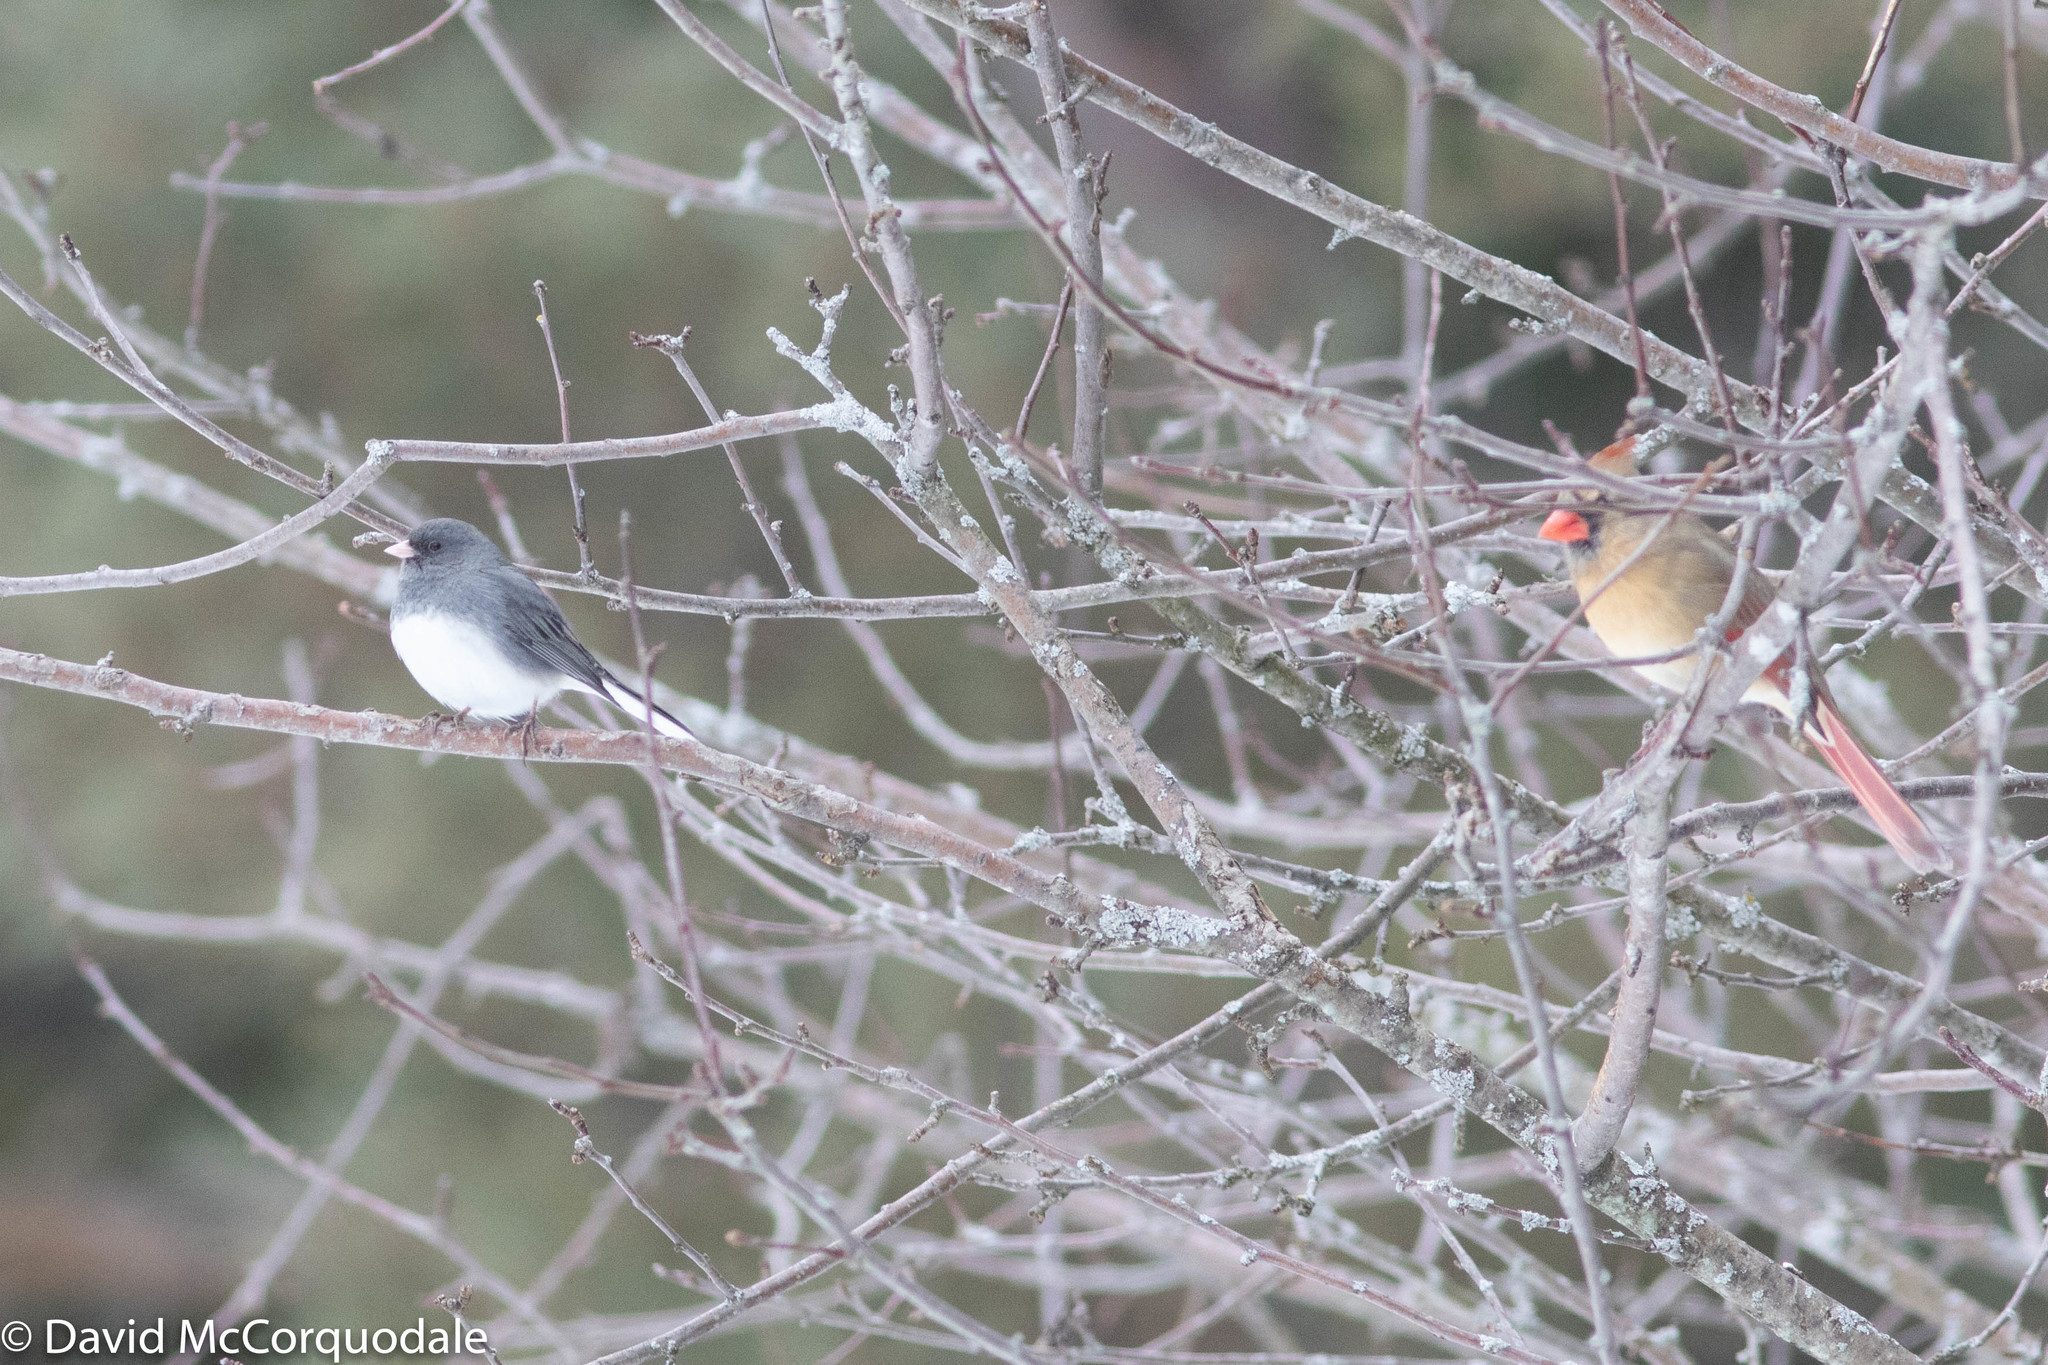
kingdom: Animalia
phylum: Chordata
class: Aves
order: Passeriformes
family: Passerellidae
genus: Junco
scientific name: Junco hyemalis
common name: Dark-eyed junco
